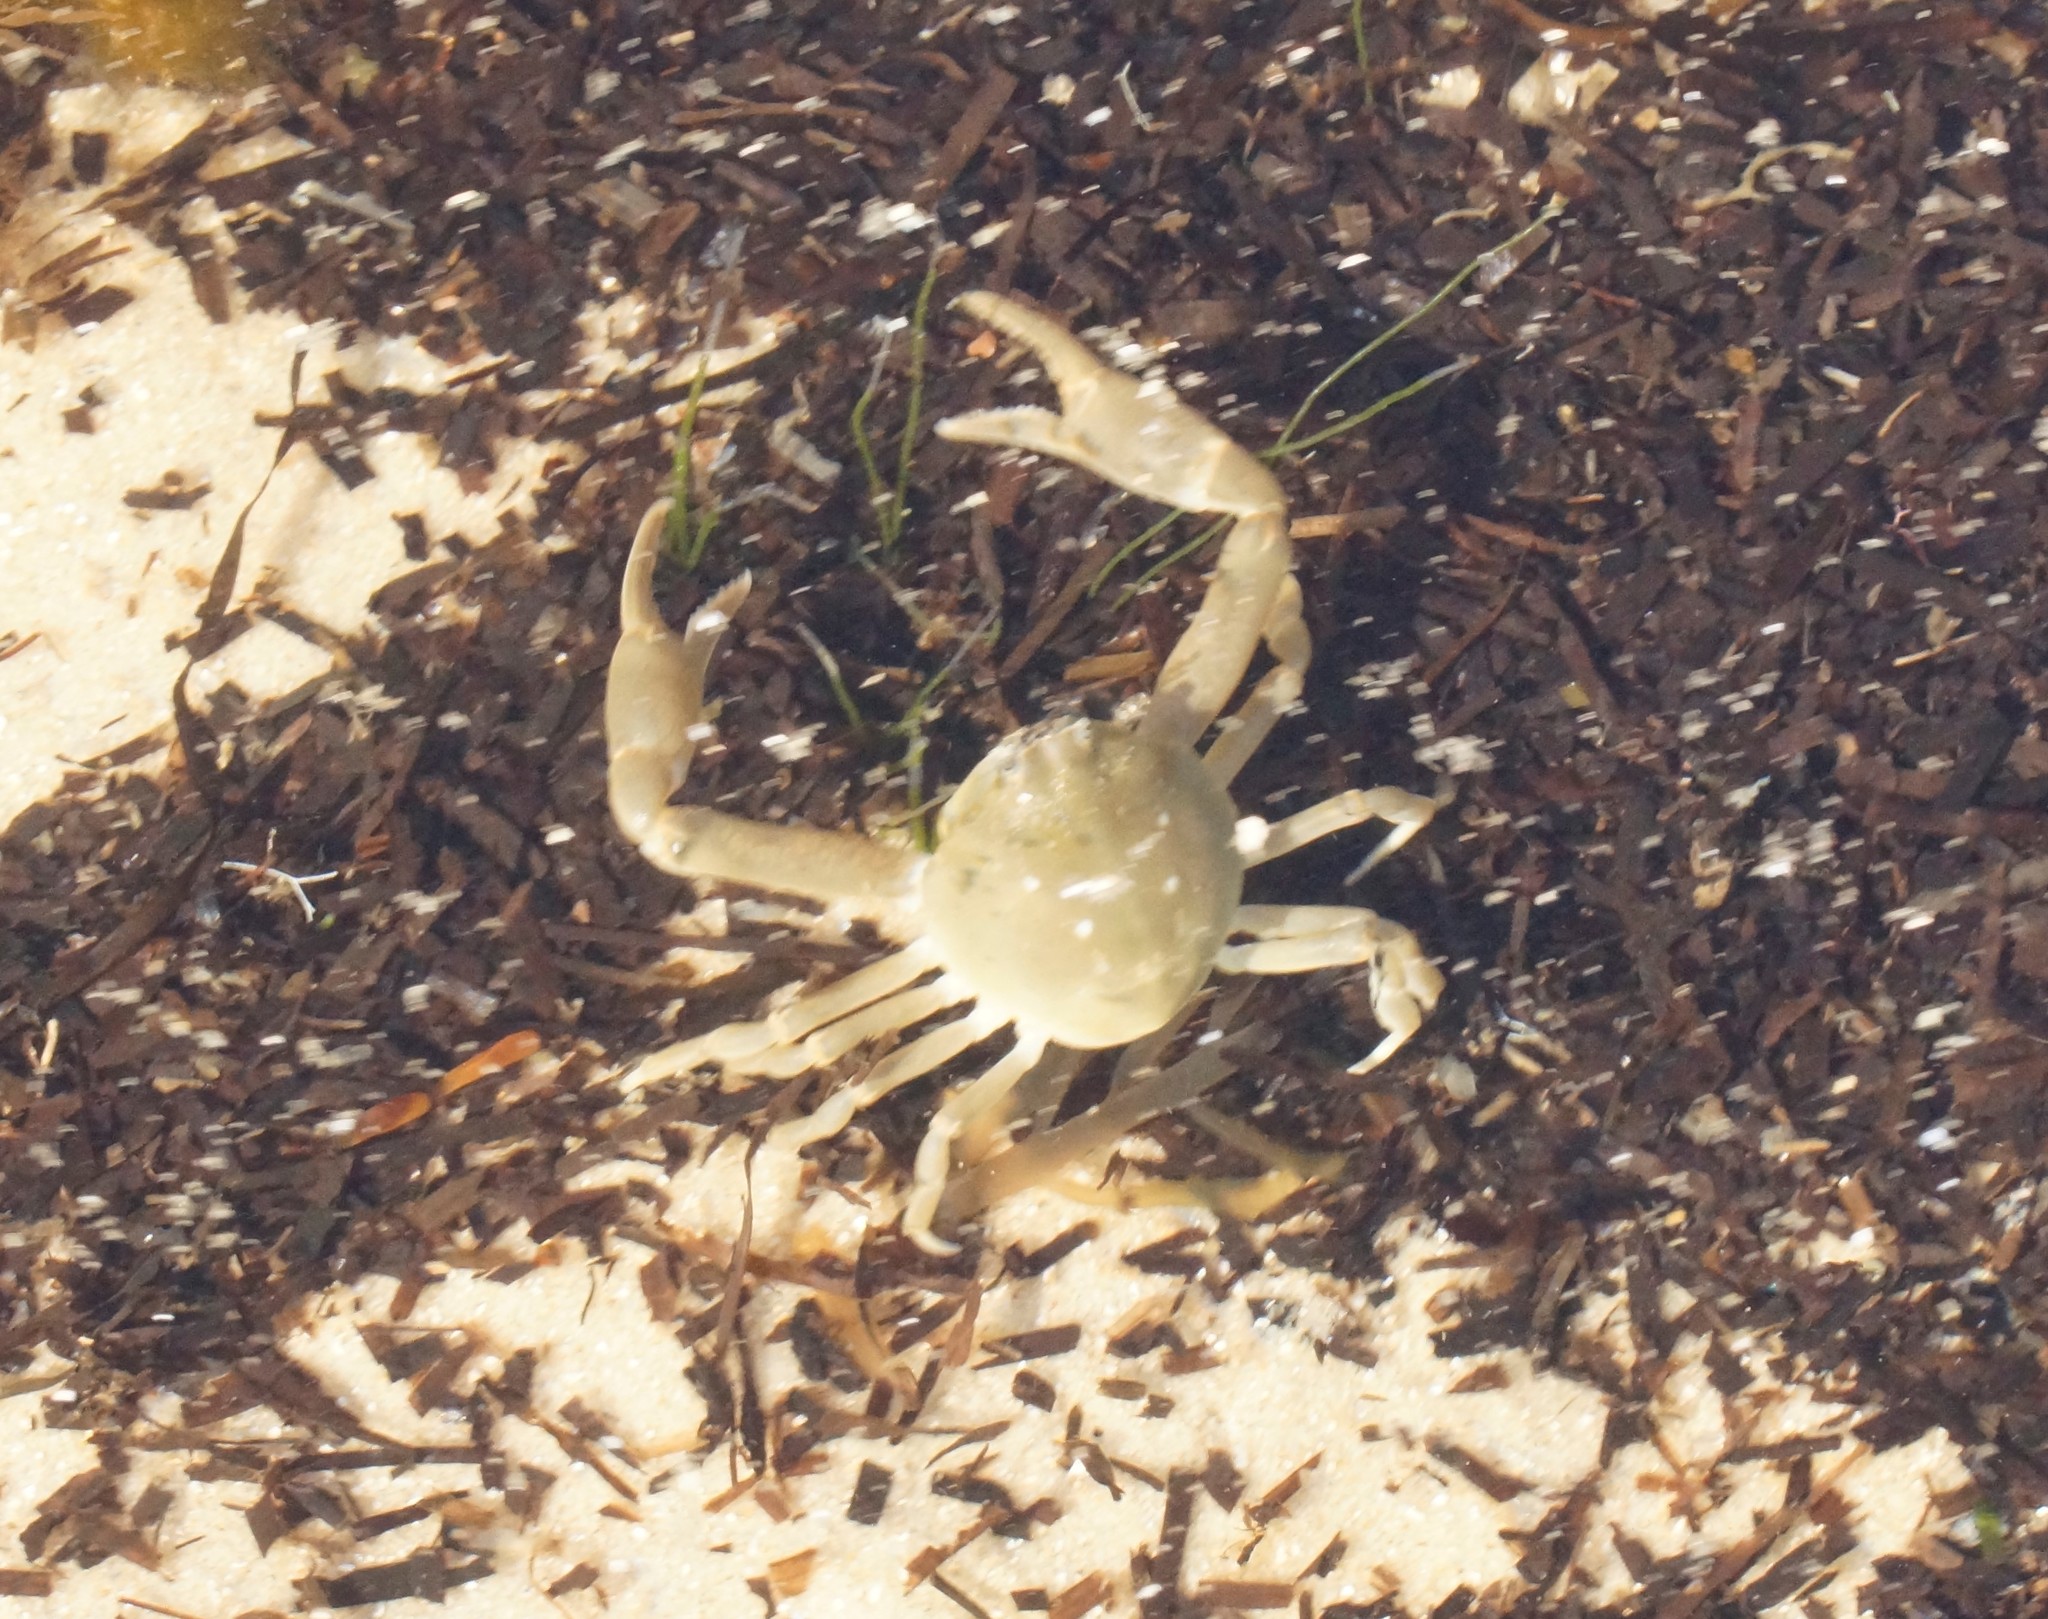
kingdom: Animalia
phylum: Arthropoda
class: Malacostraca
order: Decapoda
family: Leucosiidae
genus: Bellidilia
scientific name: Bellidilia laevis
